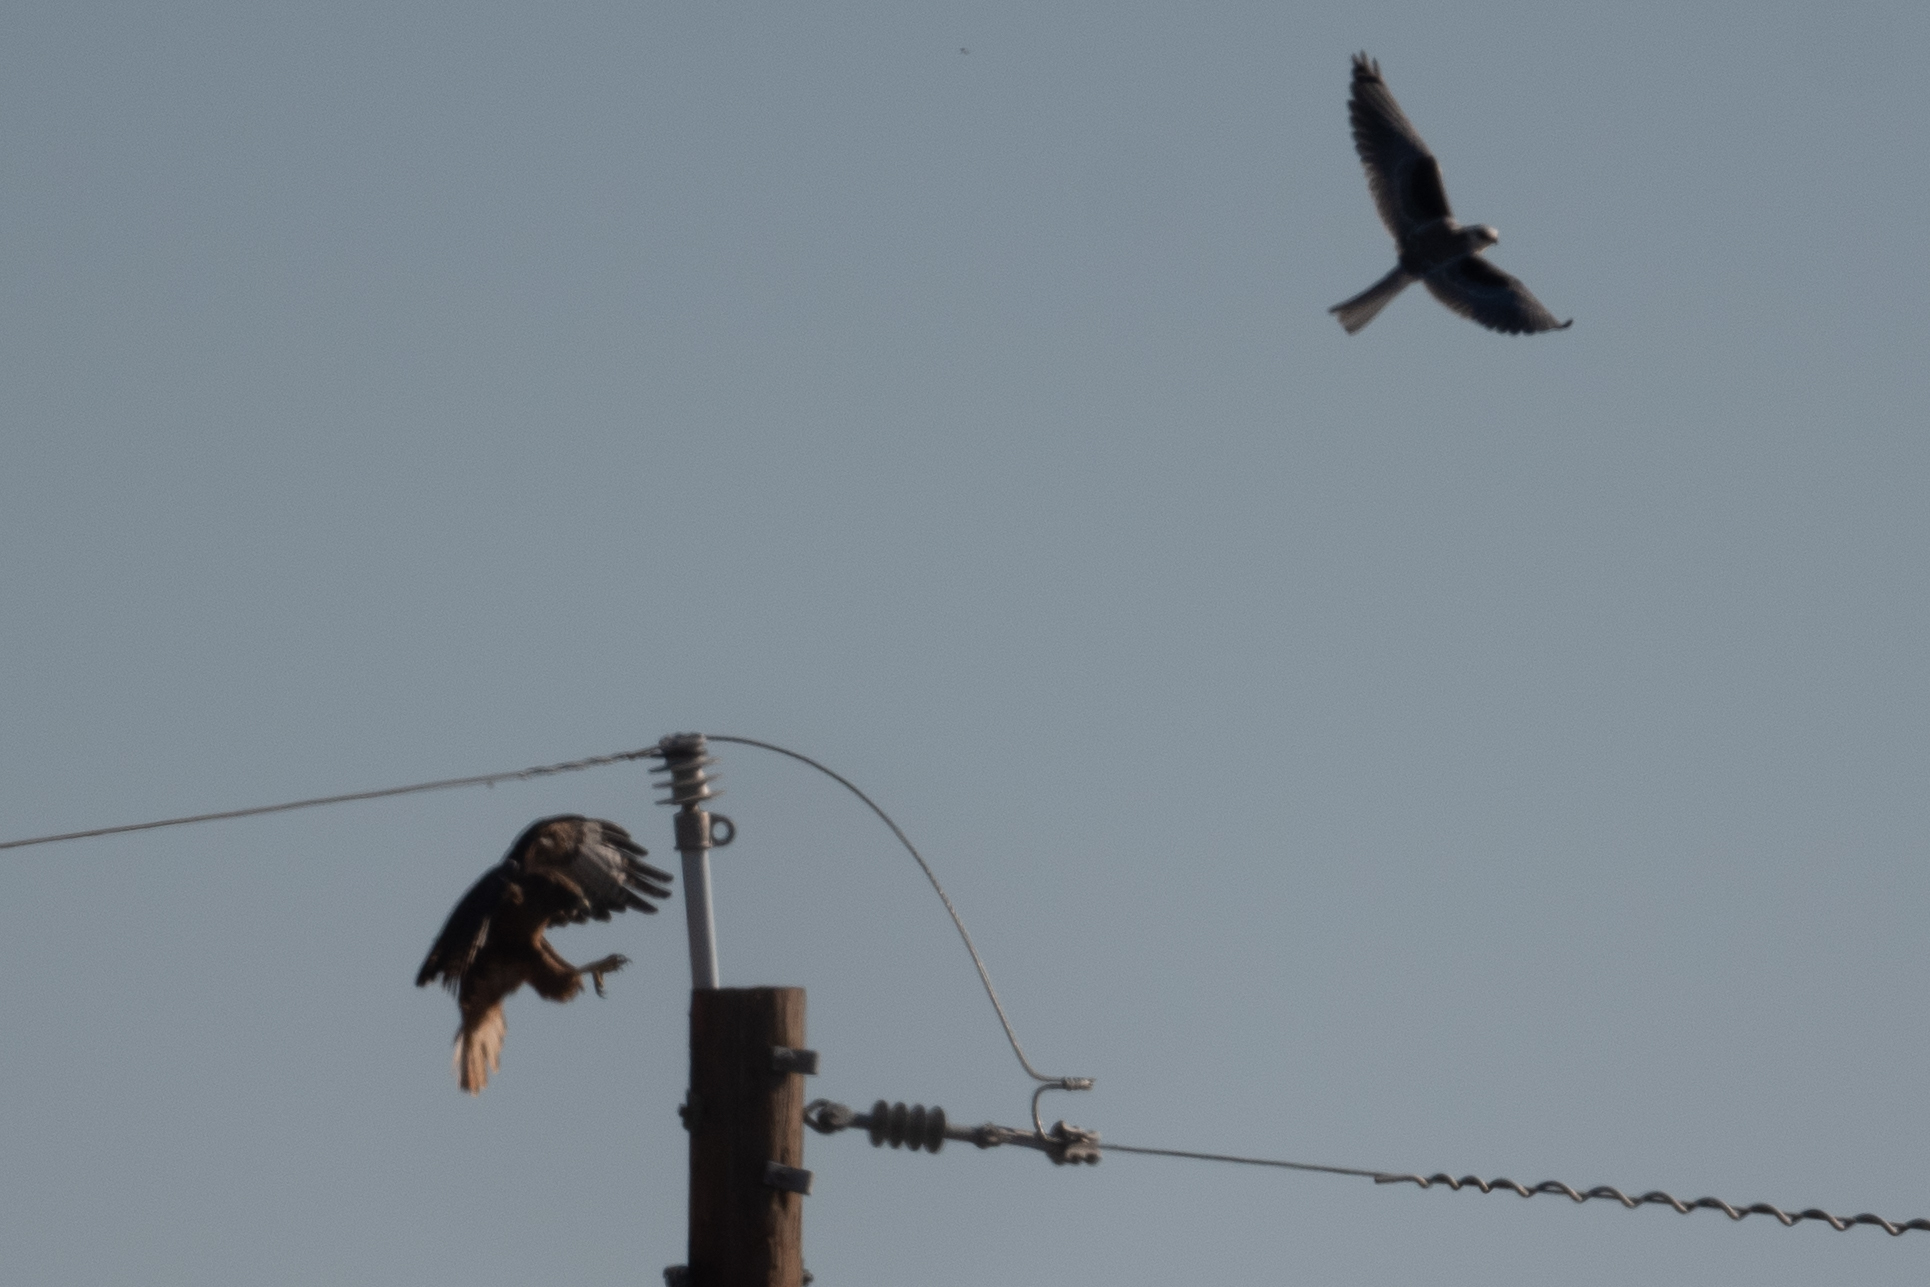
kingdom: Animalia
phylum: Chordata
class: Aves
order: Accipitriformes
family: Accipitridae
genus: Buteo
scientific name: Buteo jamaicensis
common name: Red-tailed hawk
